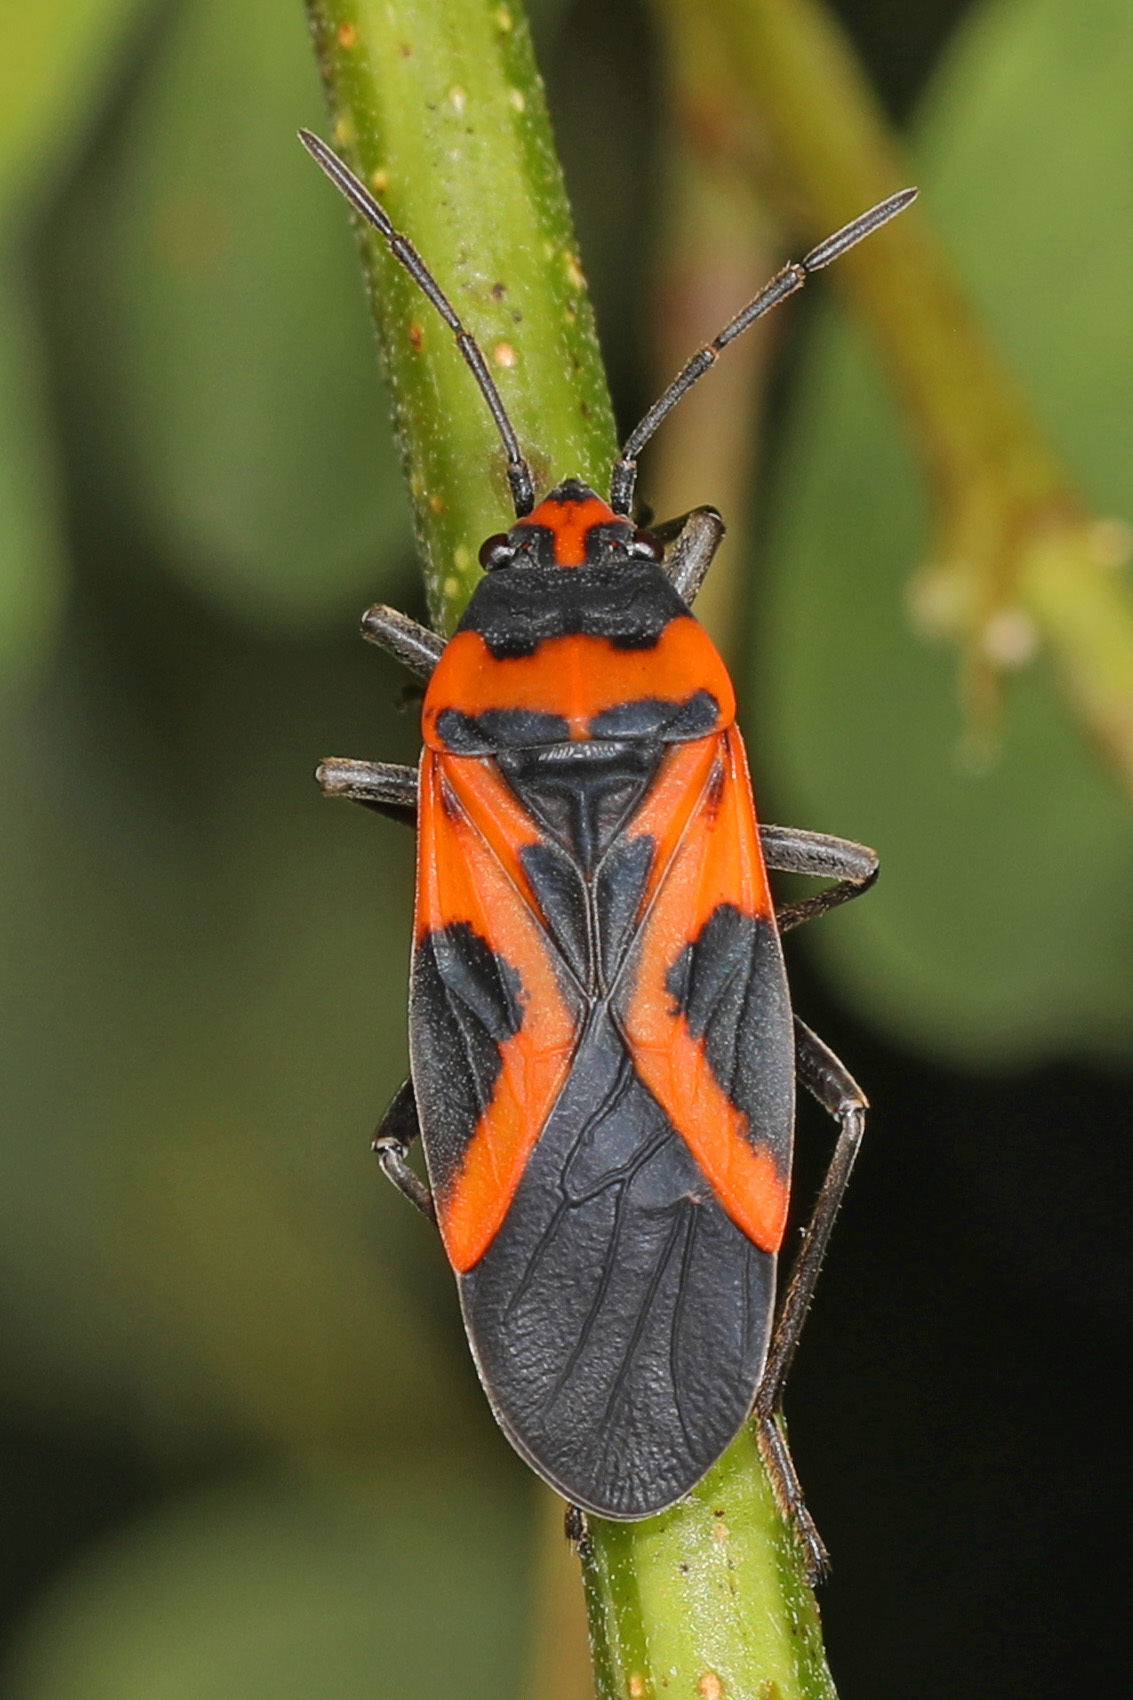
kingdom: Animalia
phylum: Arthropoda
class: Insecta
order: Hemiptera
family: Lygaeidae
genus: Lygaeus
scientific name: Lygaeus turcicus
